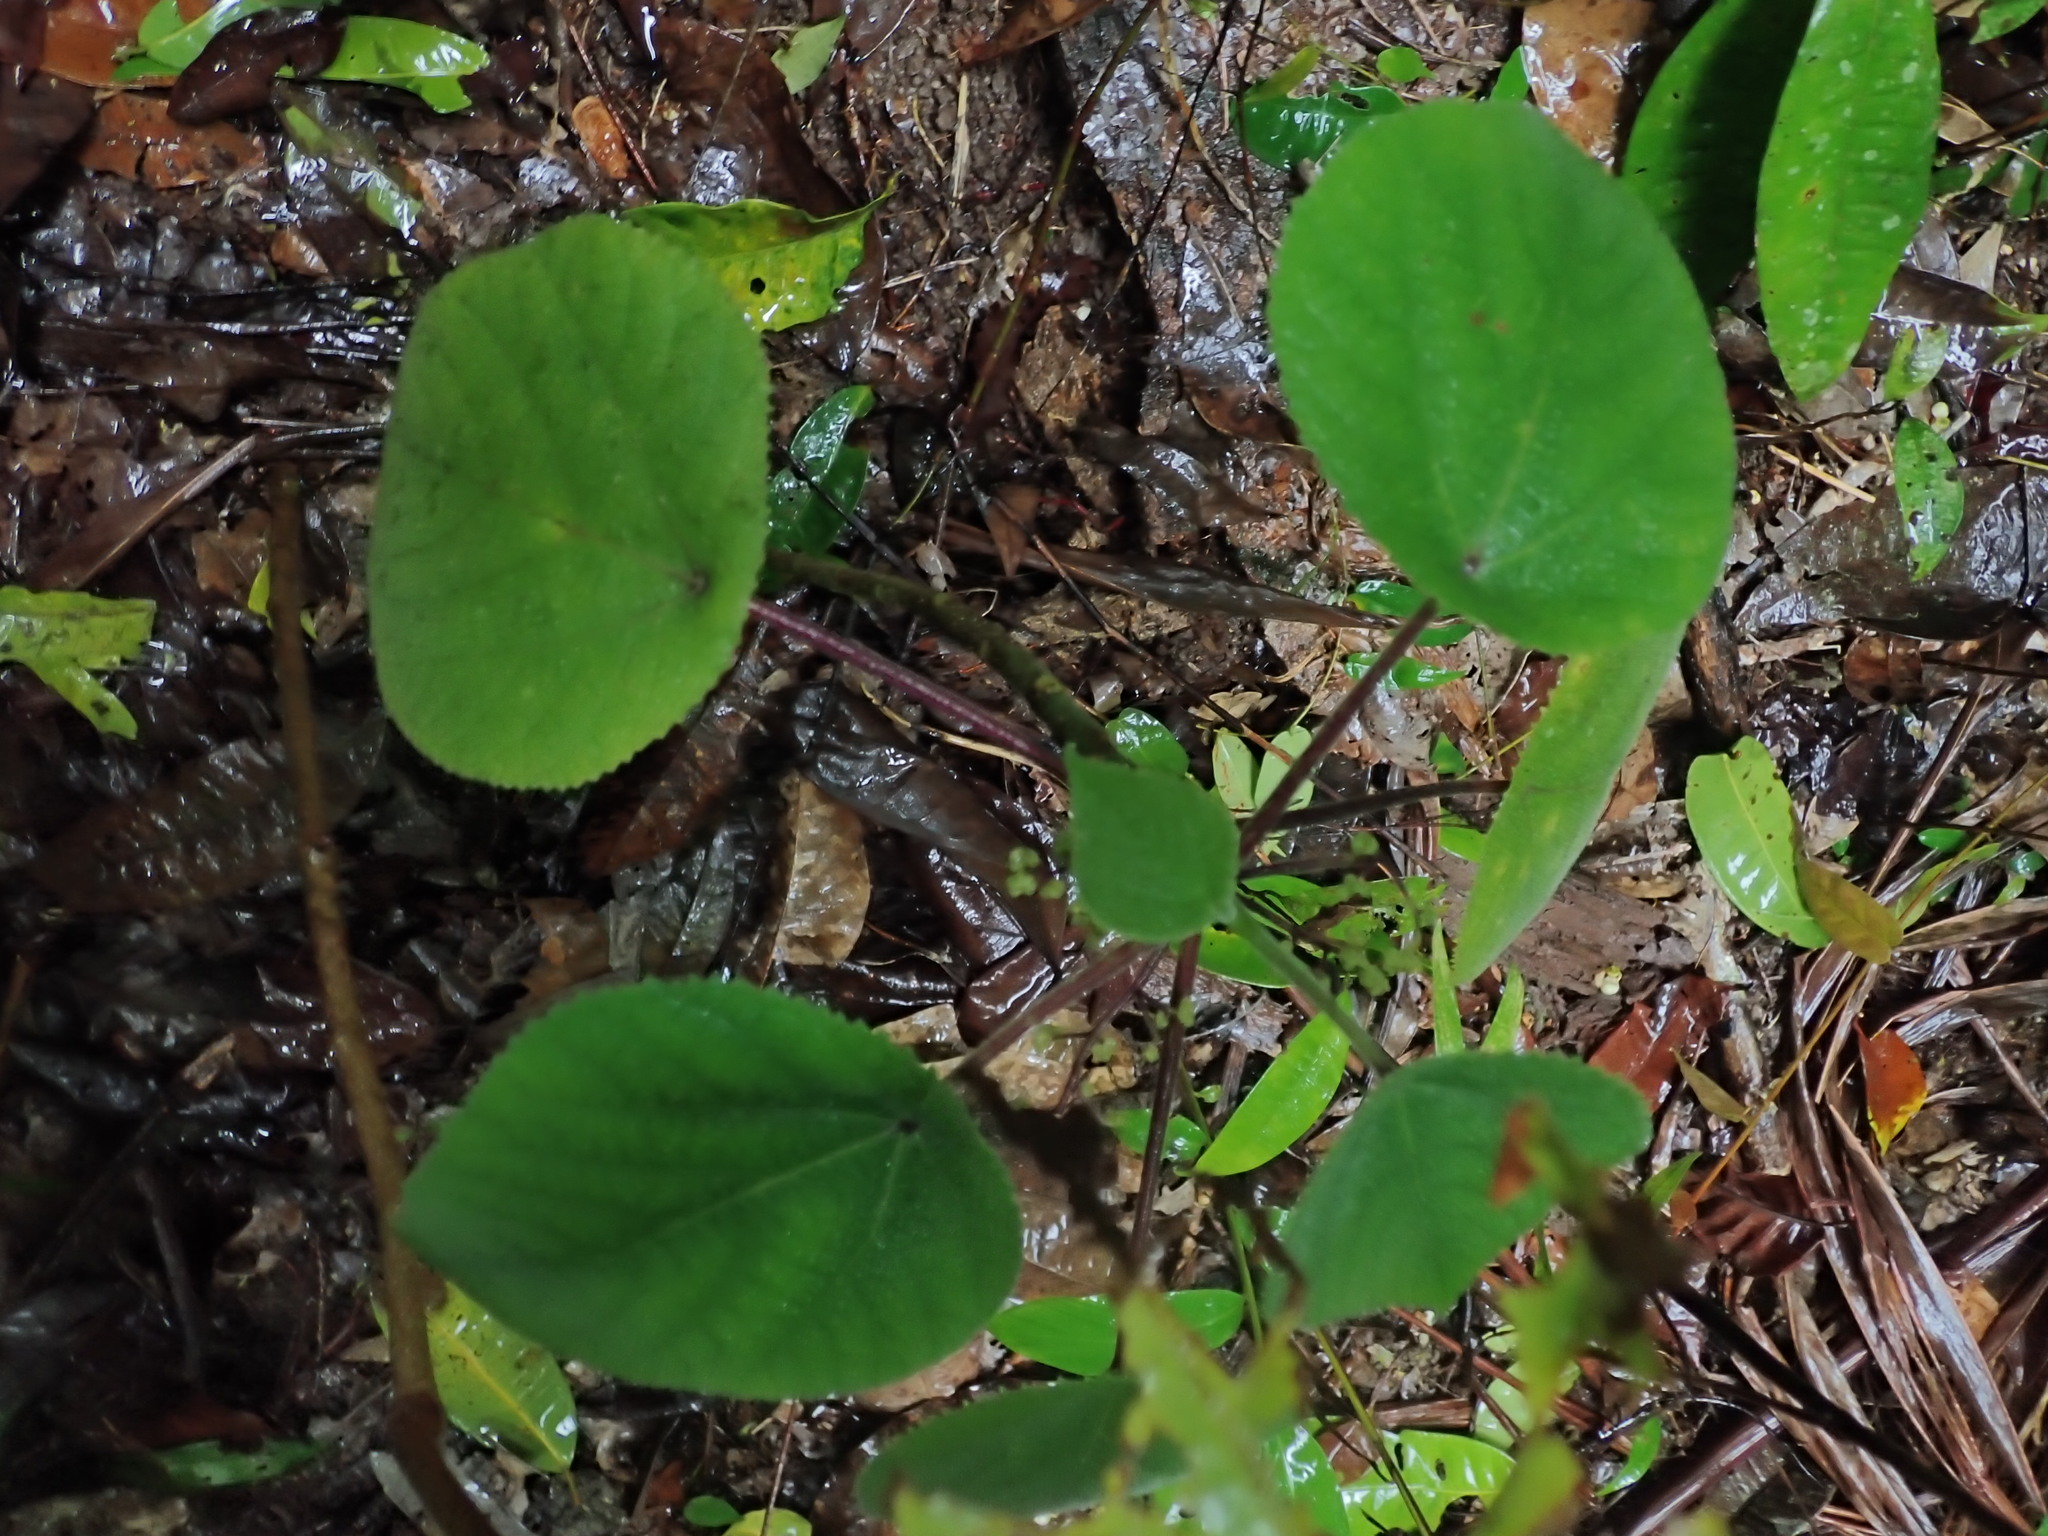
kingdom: Plantae
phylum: Tracheophyta
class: Magnoliopsida
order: Rosales
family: Urticaceae
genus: Dendrocnide
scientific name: Dendrocnide moroides
